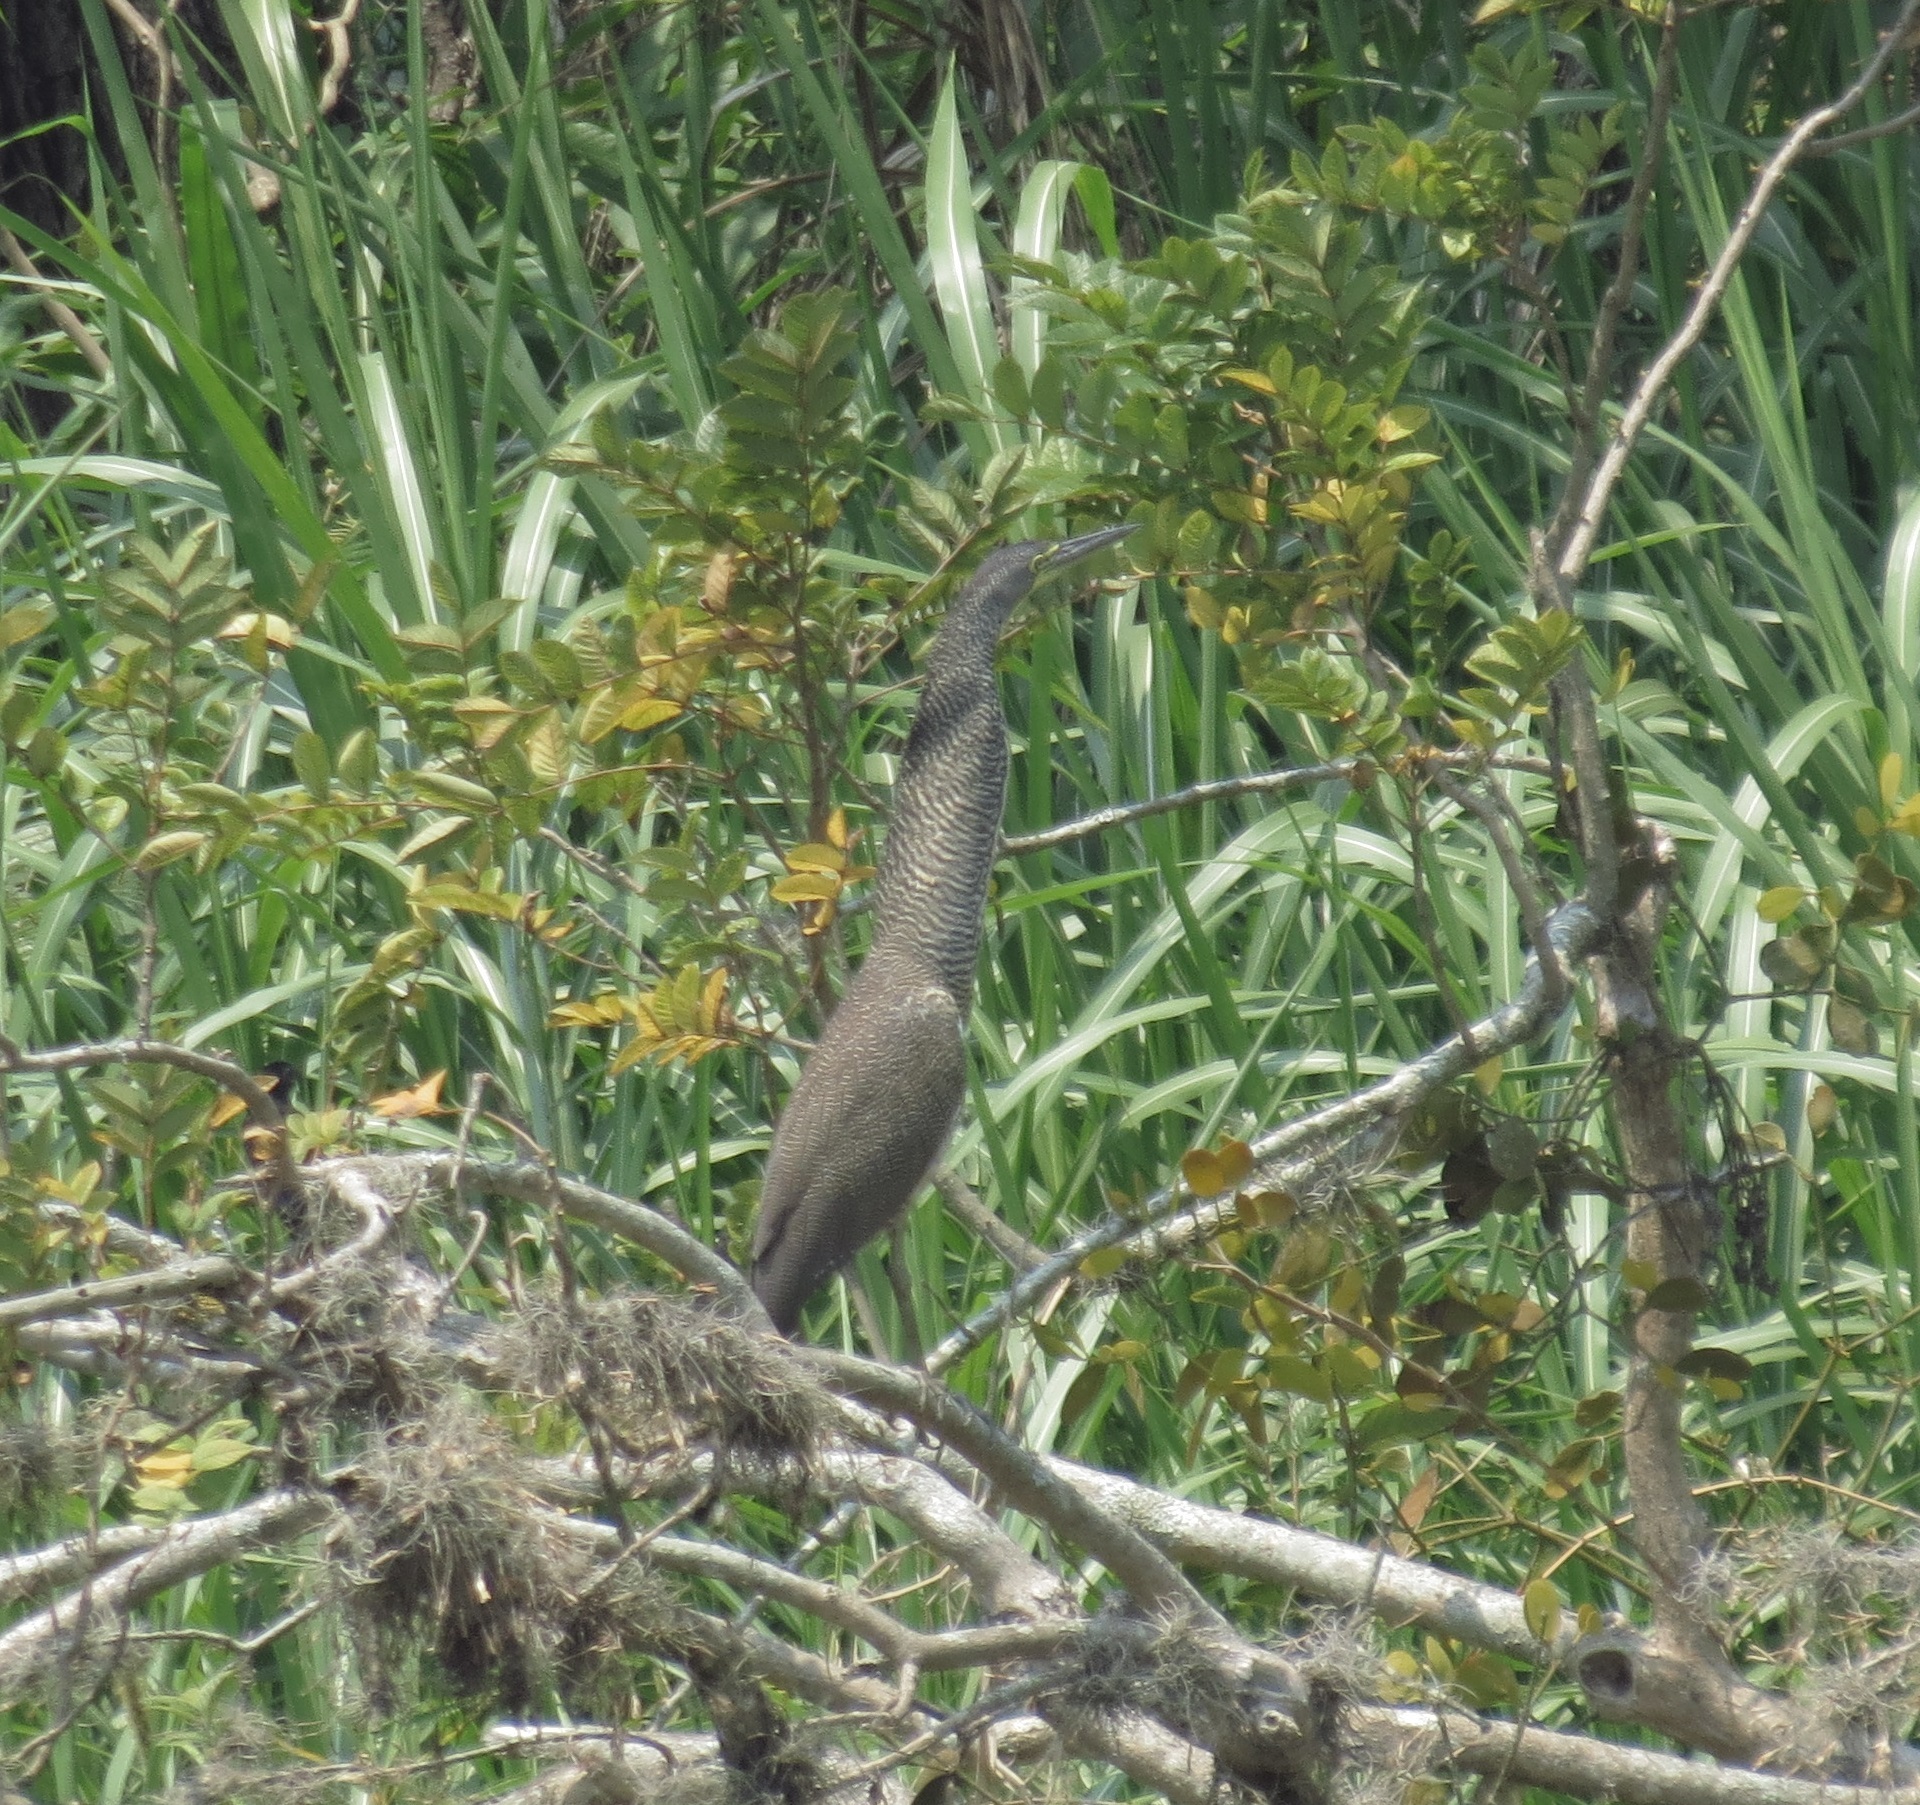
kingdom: Animalia
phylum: Chordata
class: Aves
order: Pelecaniformes
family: Ardeidae
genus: Tigrisoma
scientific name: Tigrisoma mexicanum
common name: Bare-throated tiger-heron
